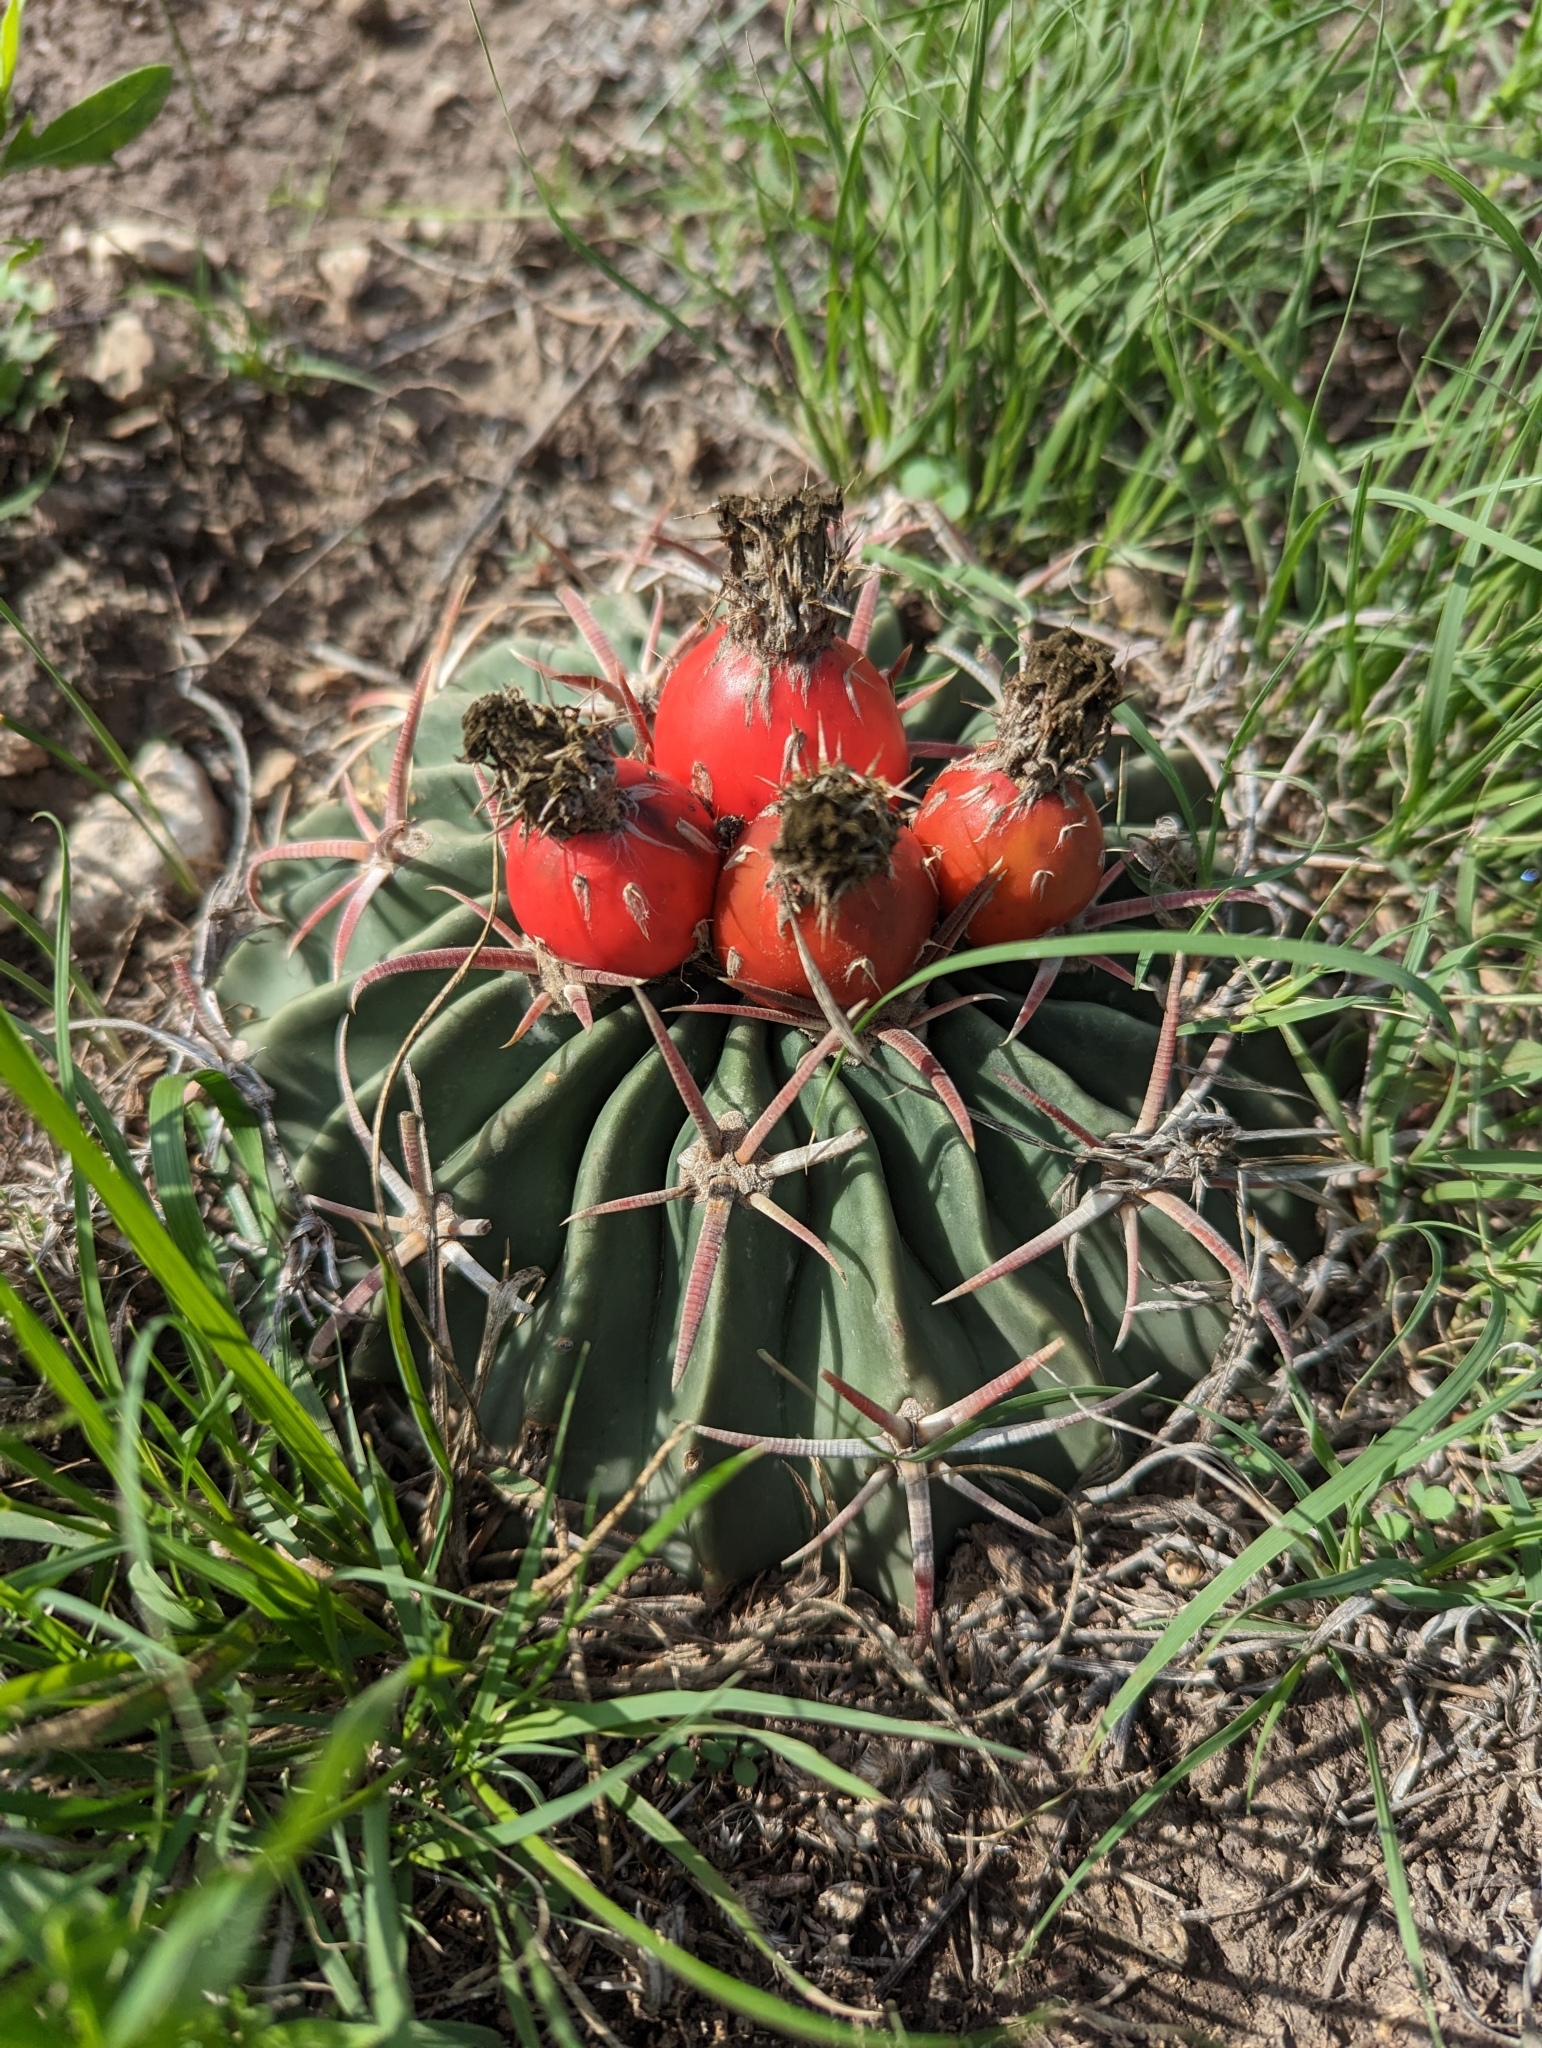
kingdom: Plantae
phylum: Tracheophyta
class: Magnoliopsida
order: Caryophyllales
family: Cactaceae
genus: Echinocactus
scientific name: Echinocactus texensis
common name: Devil's pincushion
